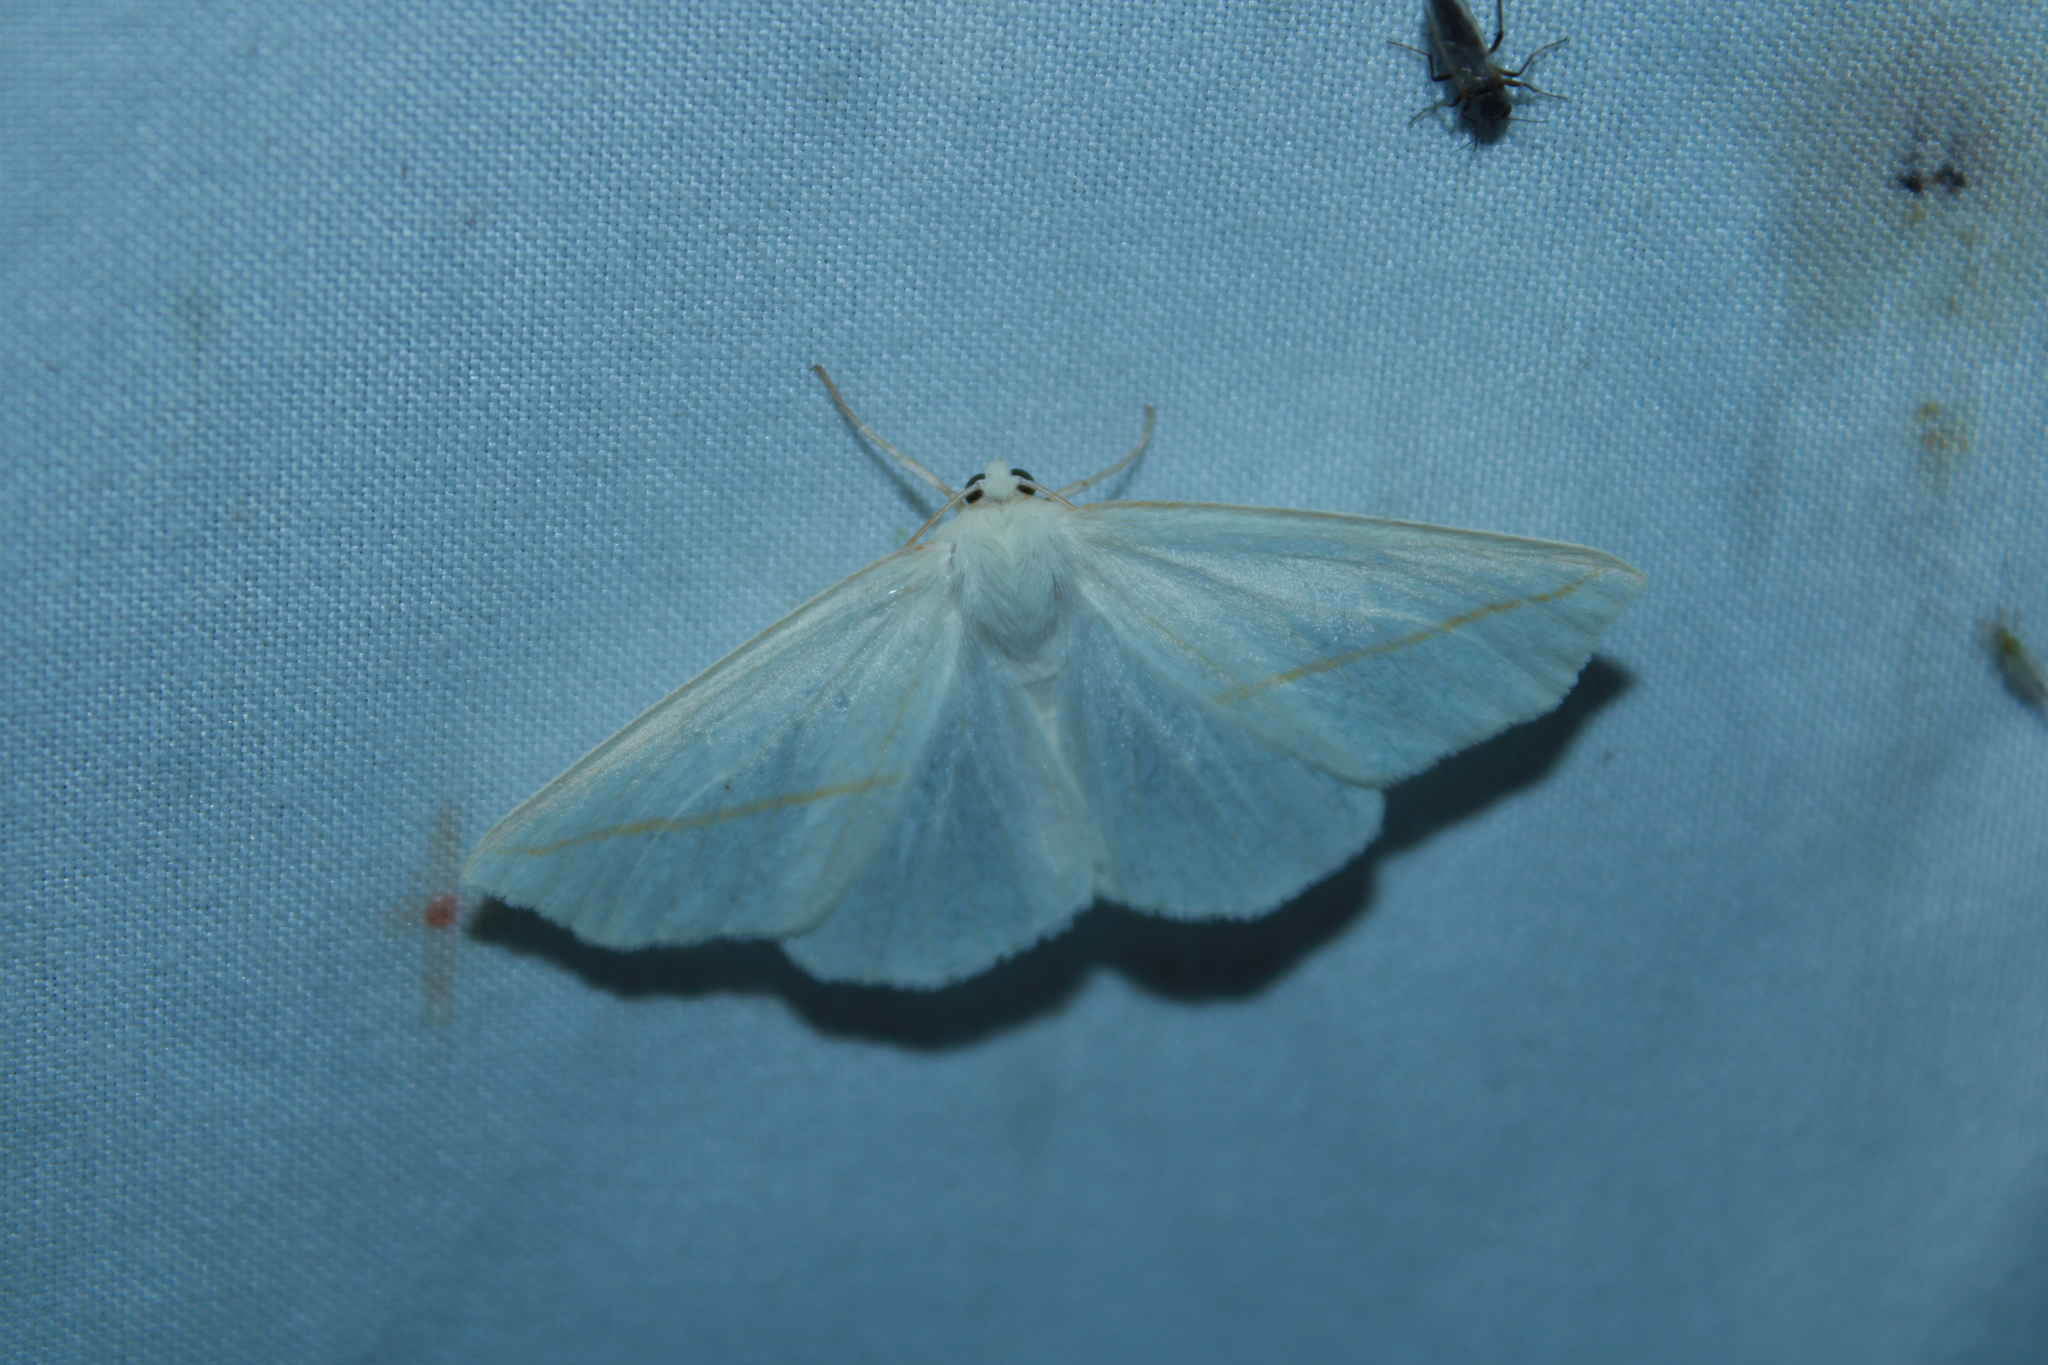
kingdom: Animalia
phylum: Arthropoda
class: Insecta
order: Lepidoptera
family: Geometridae
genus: Tetracis
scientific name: Tetracis cachexiata
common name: White slant-line
